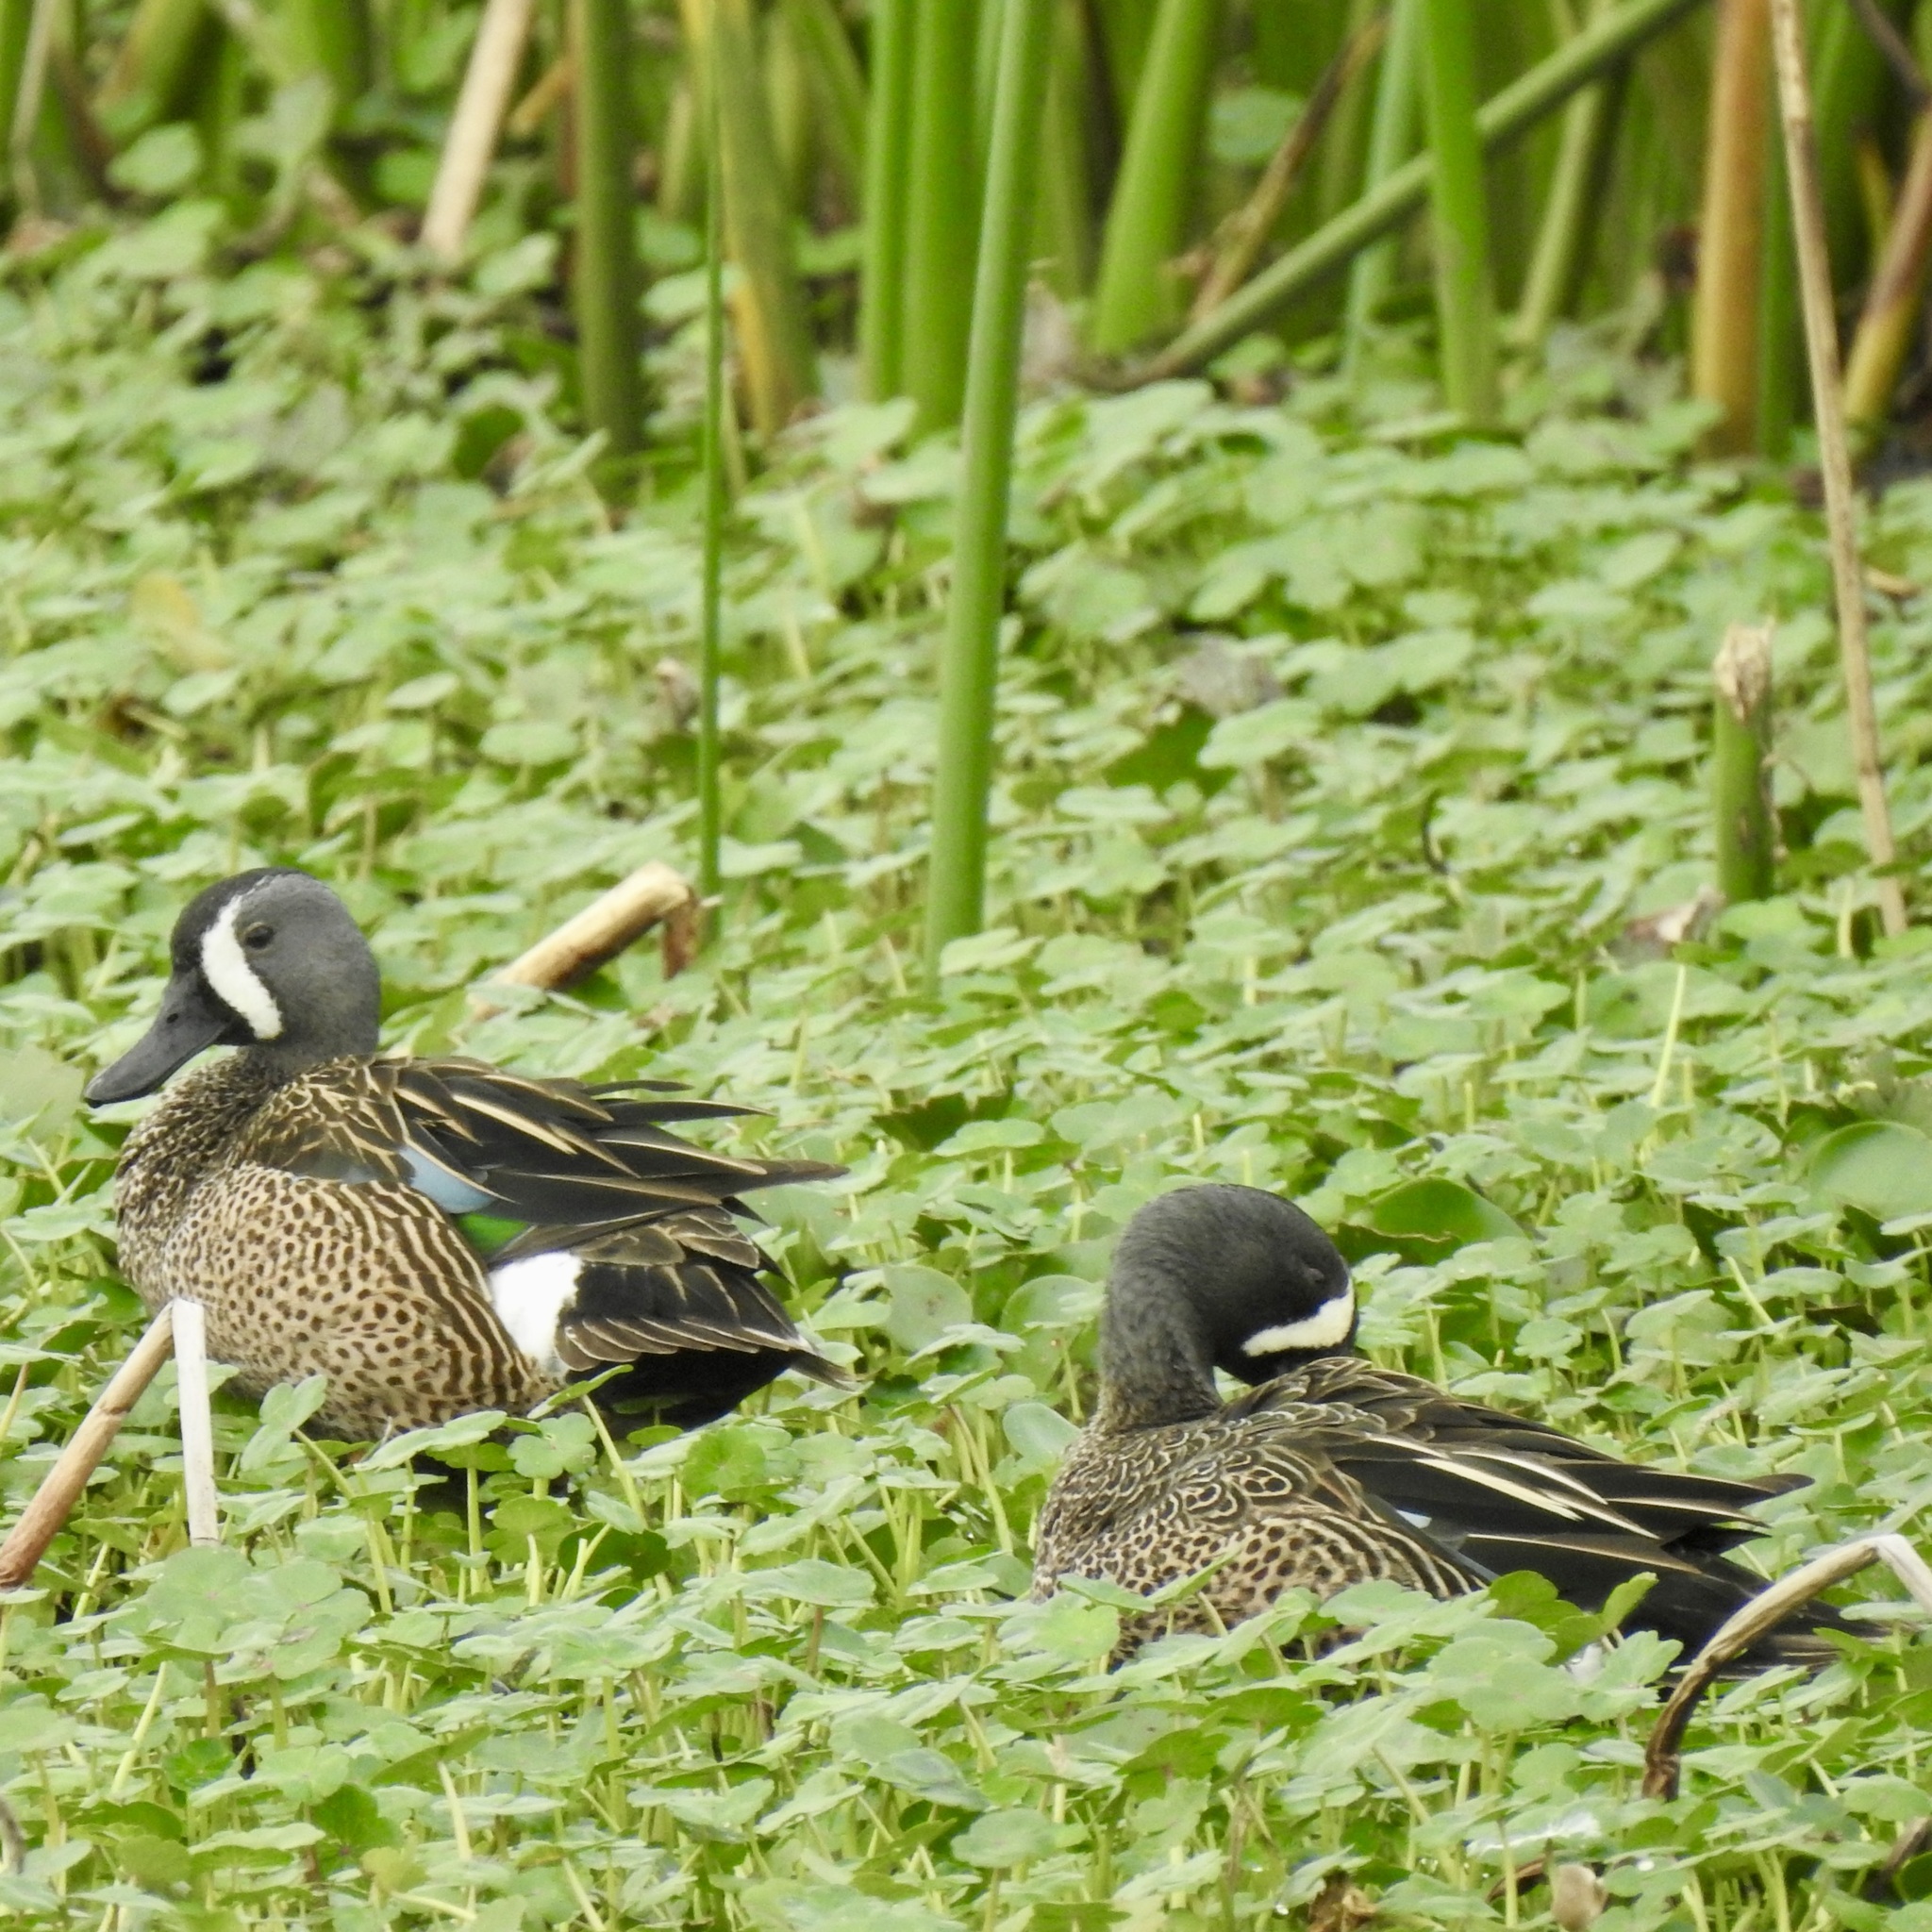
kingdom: Animalia
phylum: Chordata
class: Aves
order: Anseriformes
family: Anatidae
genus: Spatula
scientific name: Spatula discors
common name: Blue-winged teal
